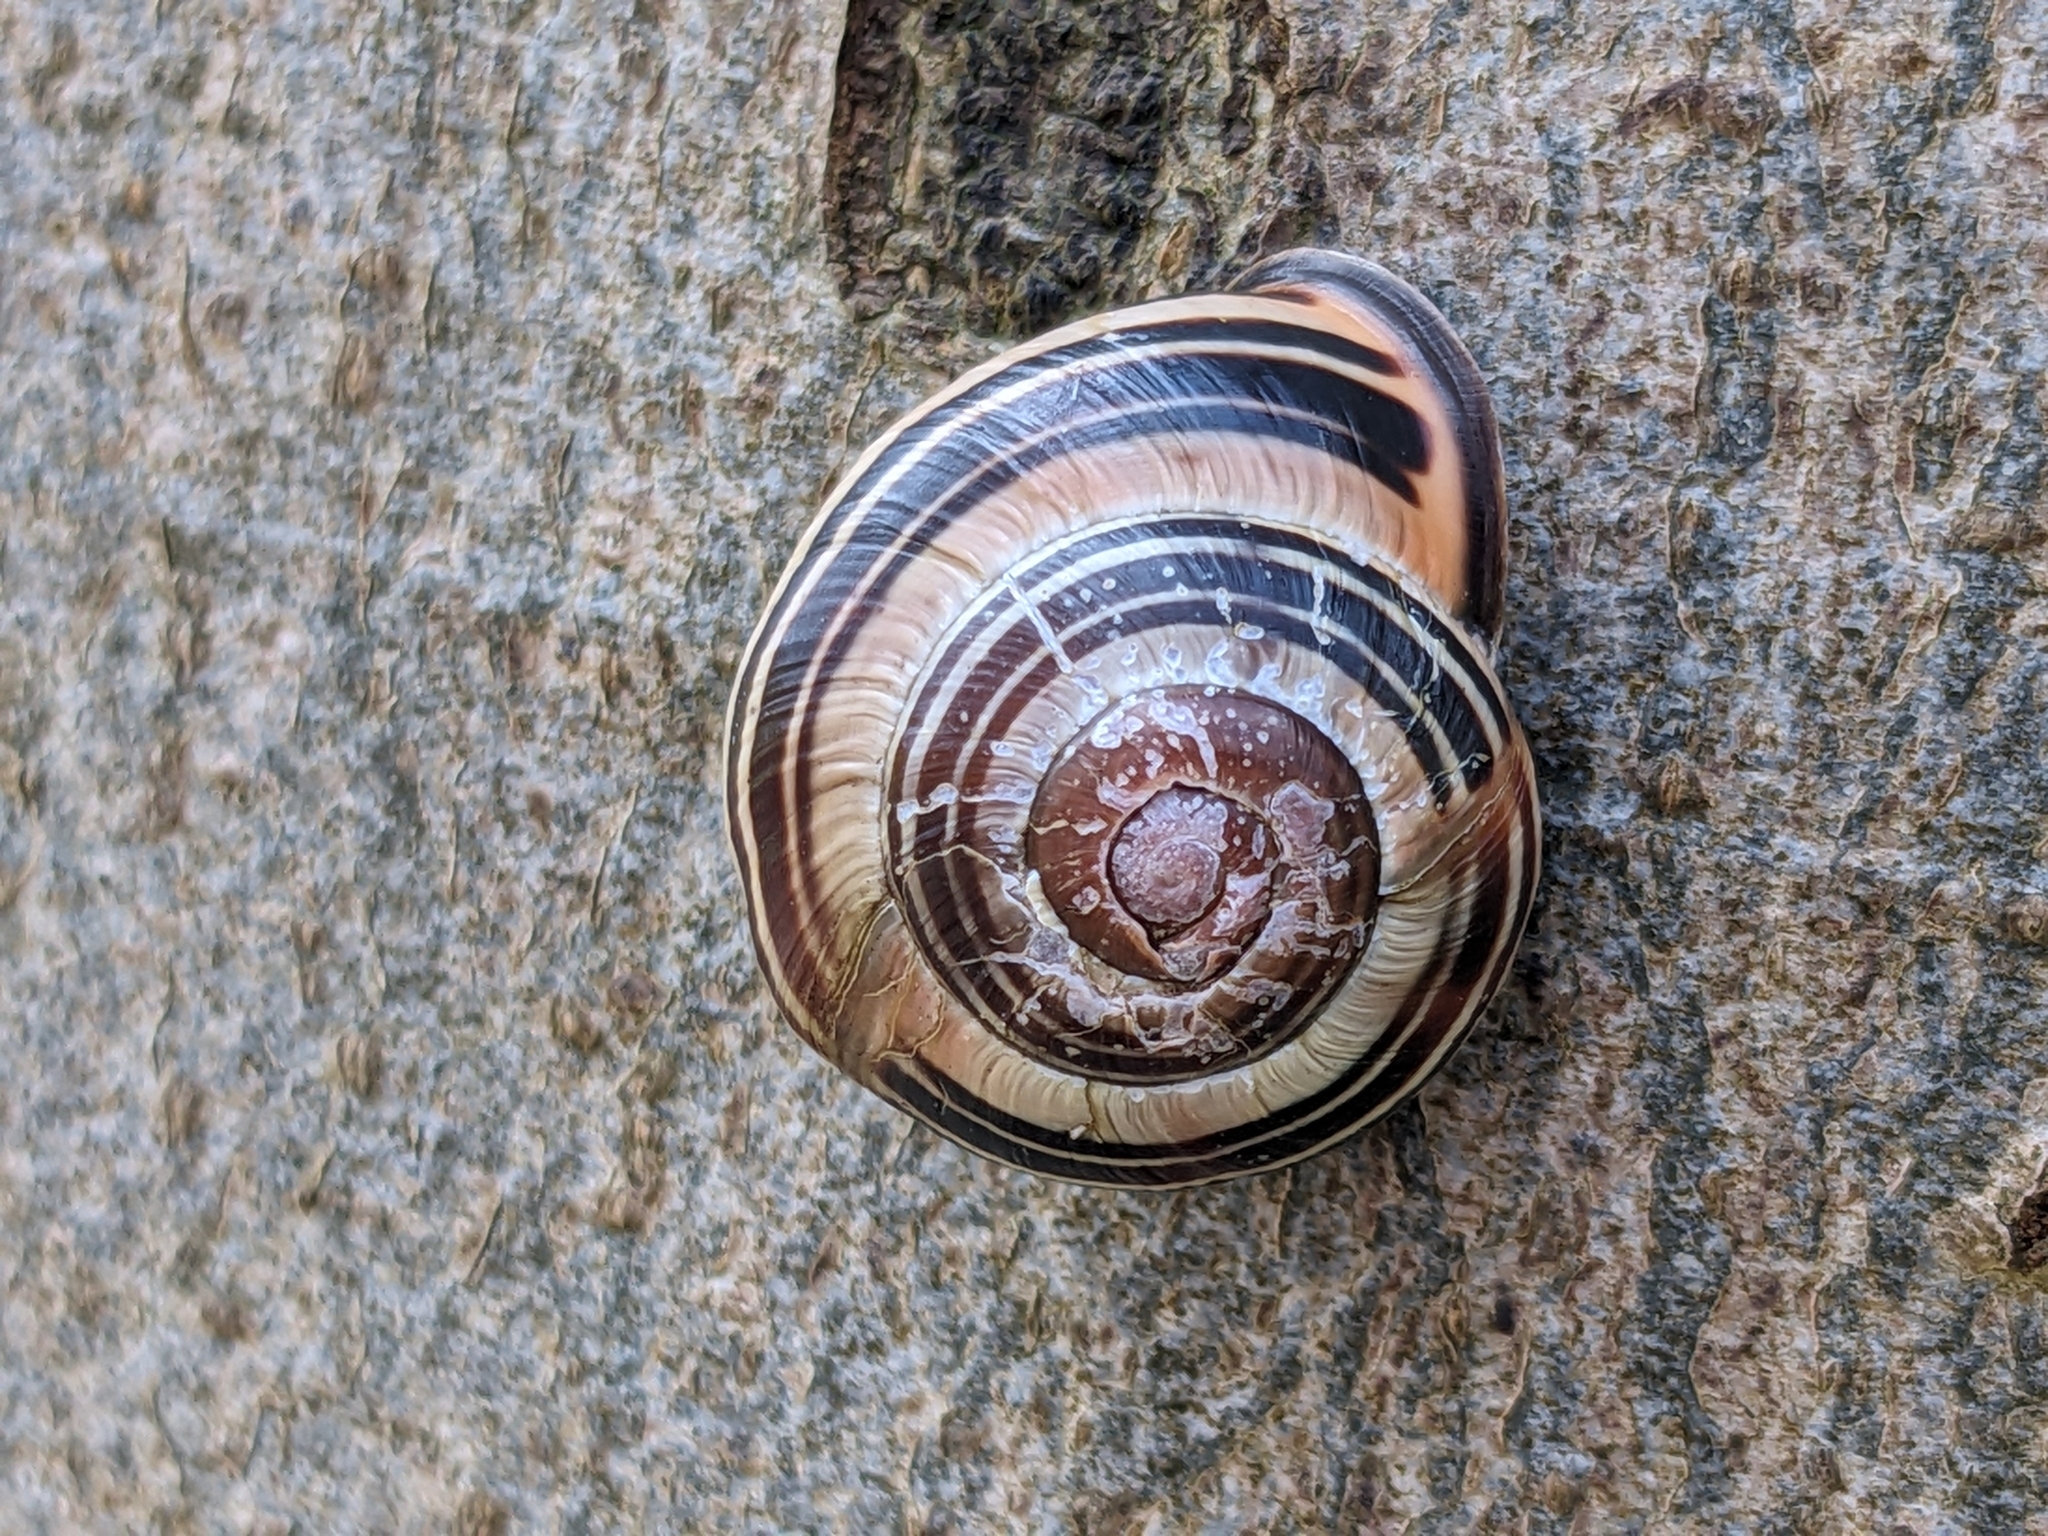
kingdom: Animalia
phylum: Mollusca
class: Gastropoda
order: Stylommatophora
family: Helicidae
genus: Cepaea
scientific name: Cepaea nemoralis
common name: Grovesnail
